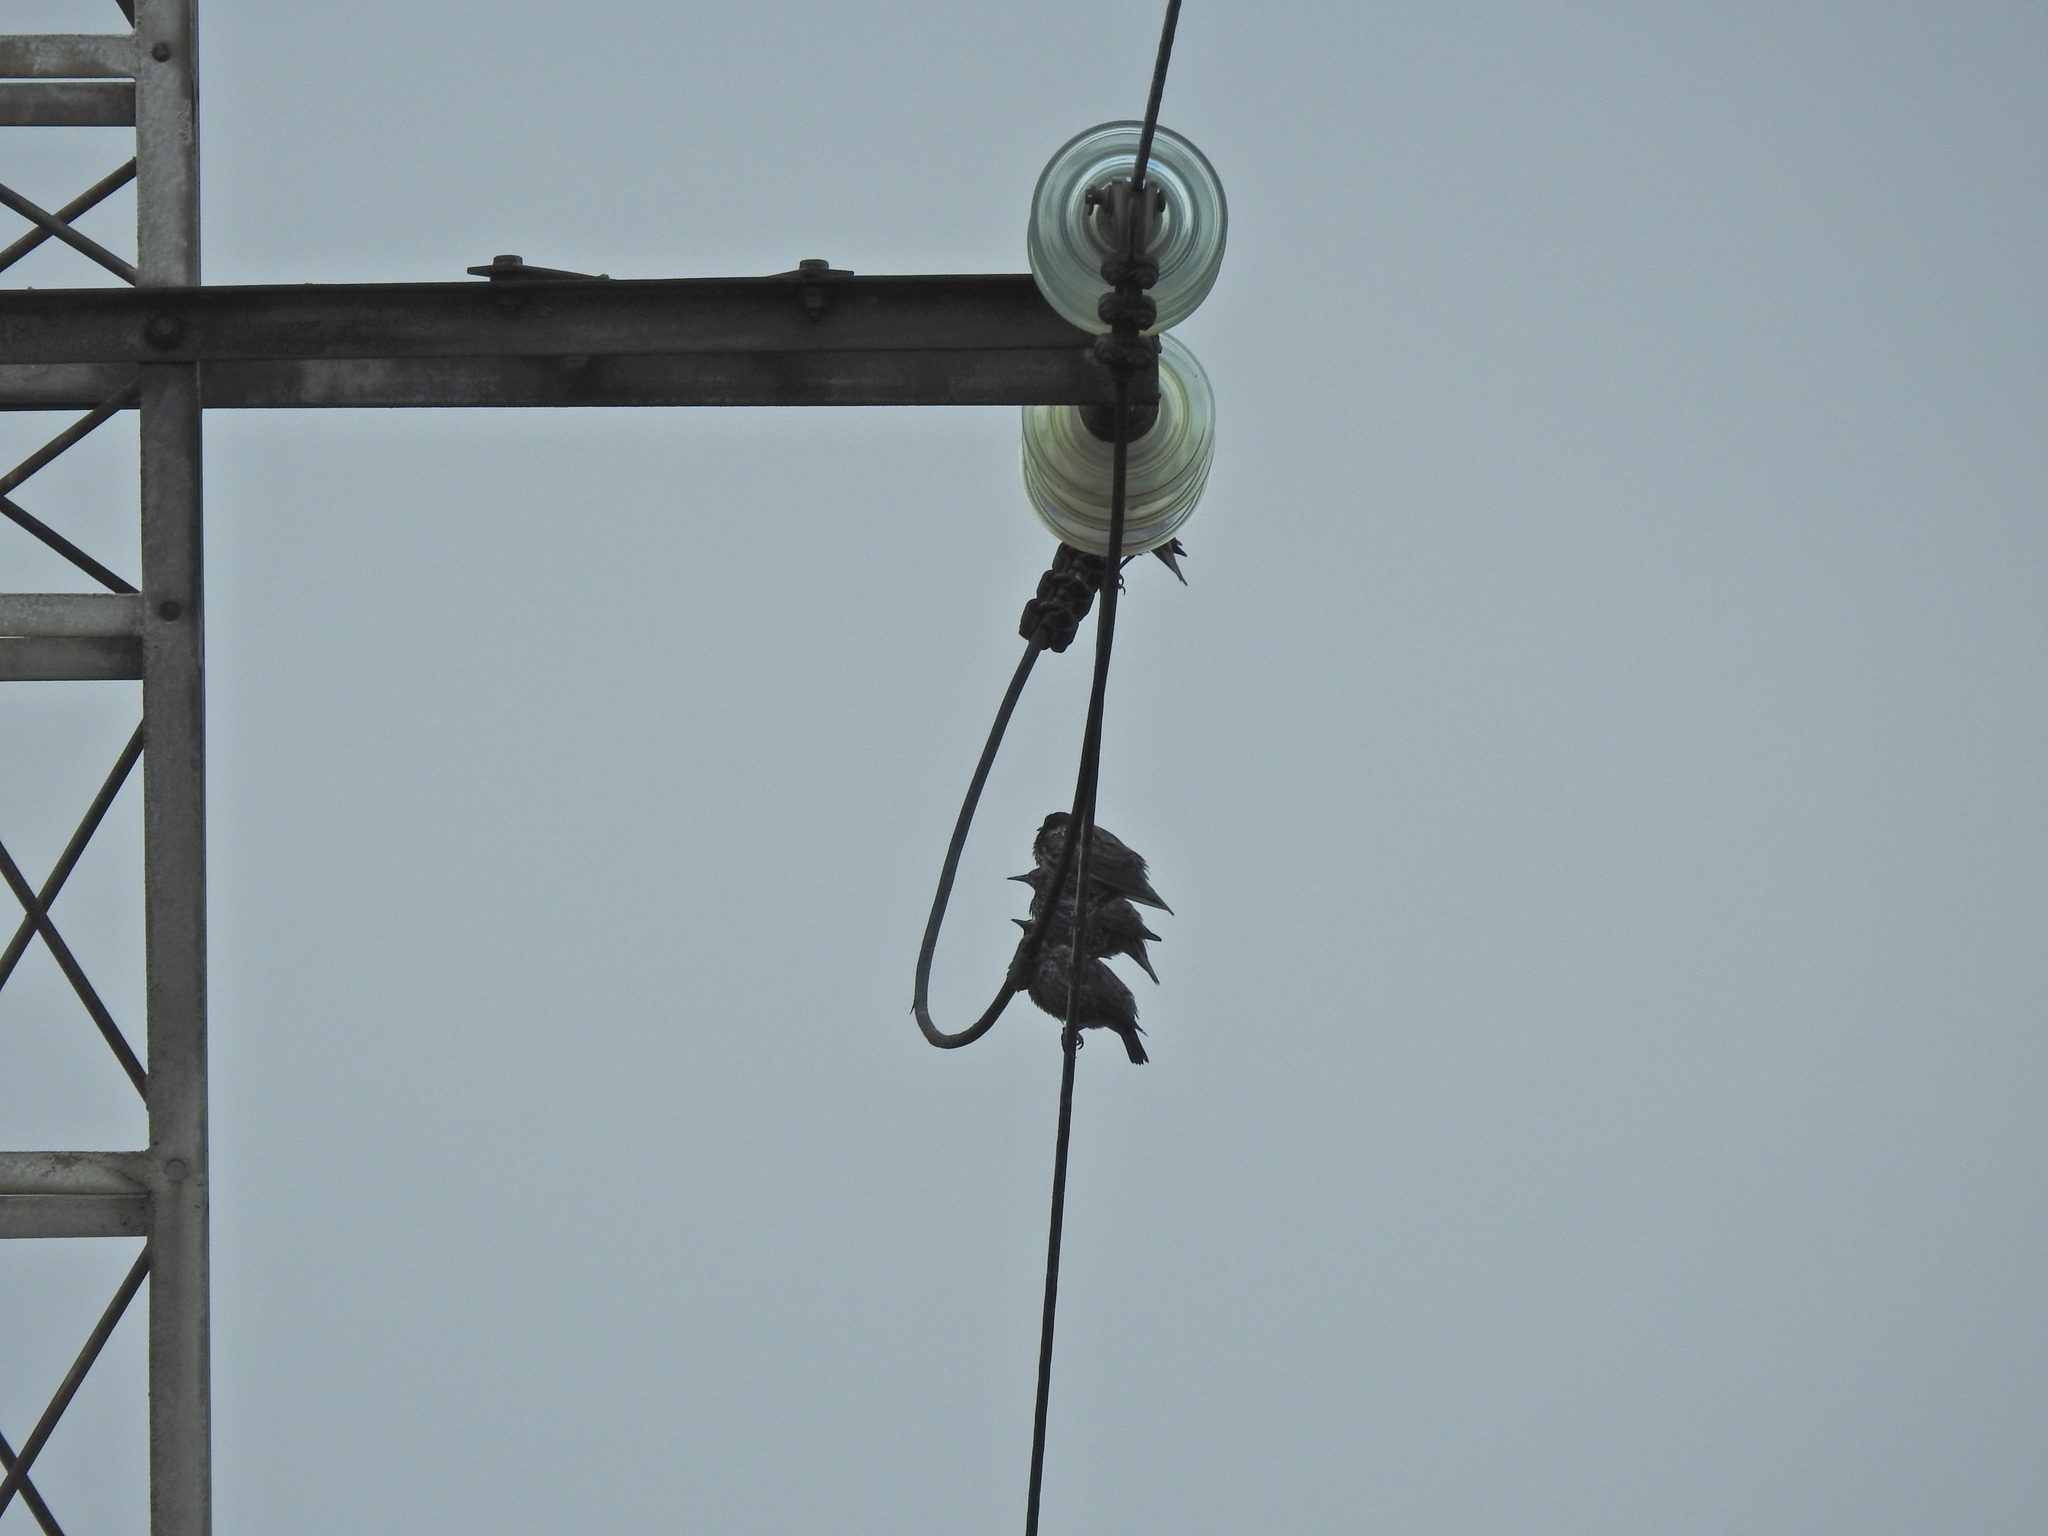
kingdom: Animalia
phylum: Chordata
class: Aves
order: Passeriformes
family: Sturnidae
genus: Sturnus
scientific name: Sturnus unicolor
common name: Spotless starling
